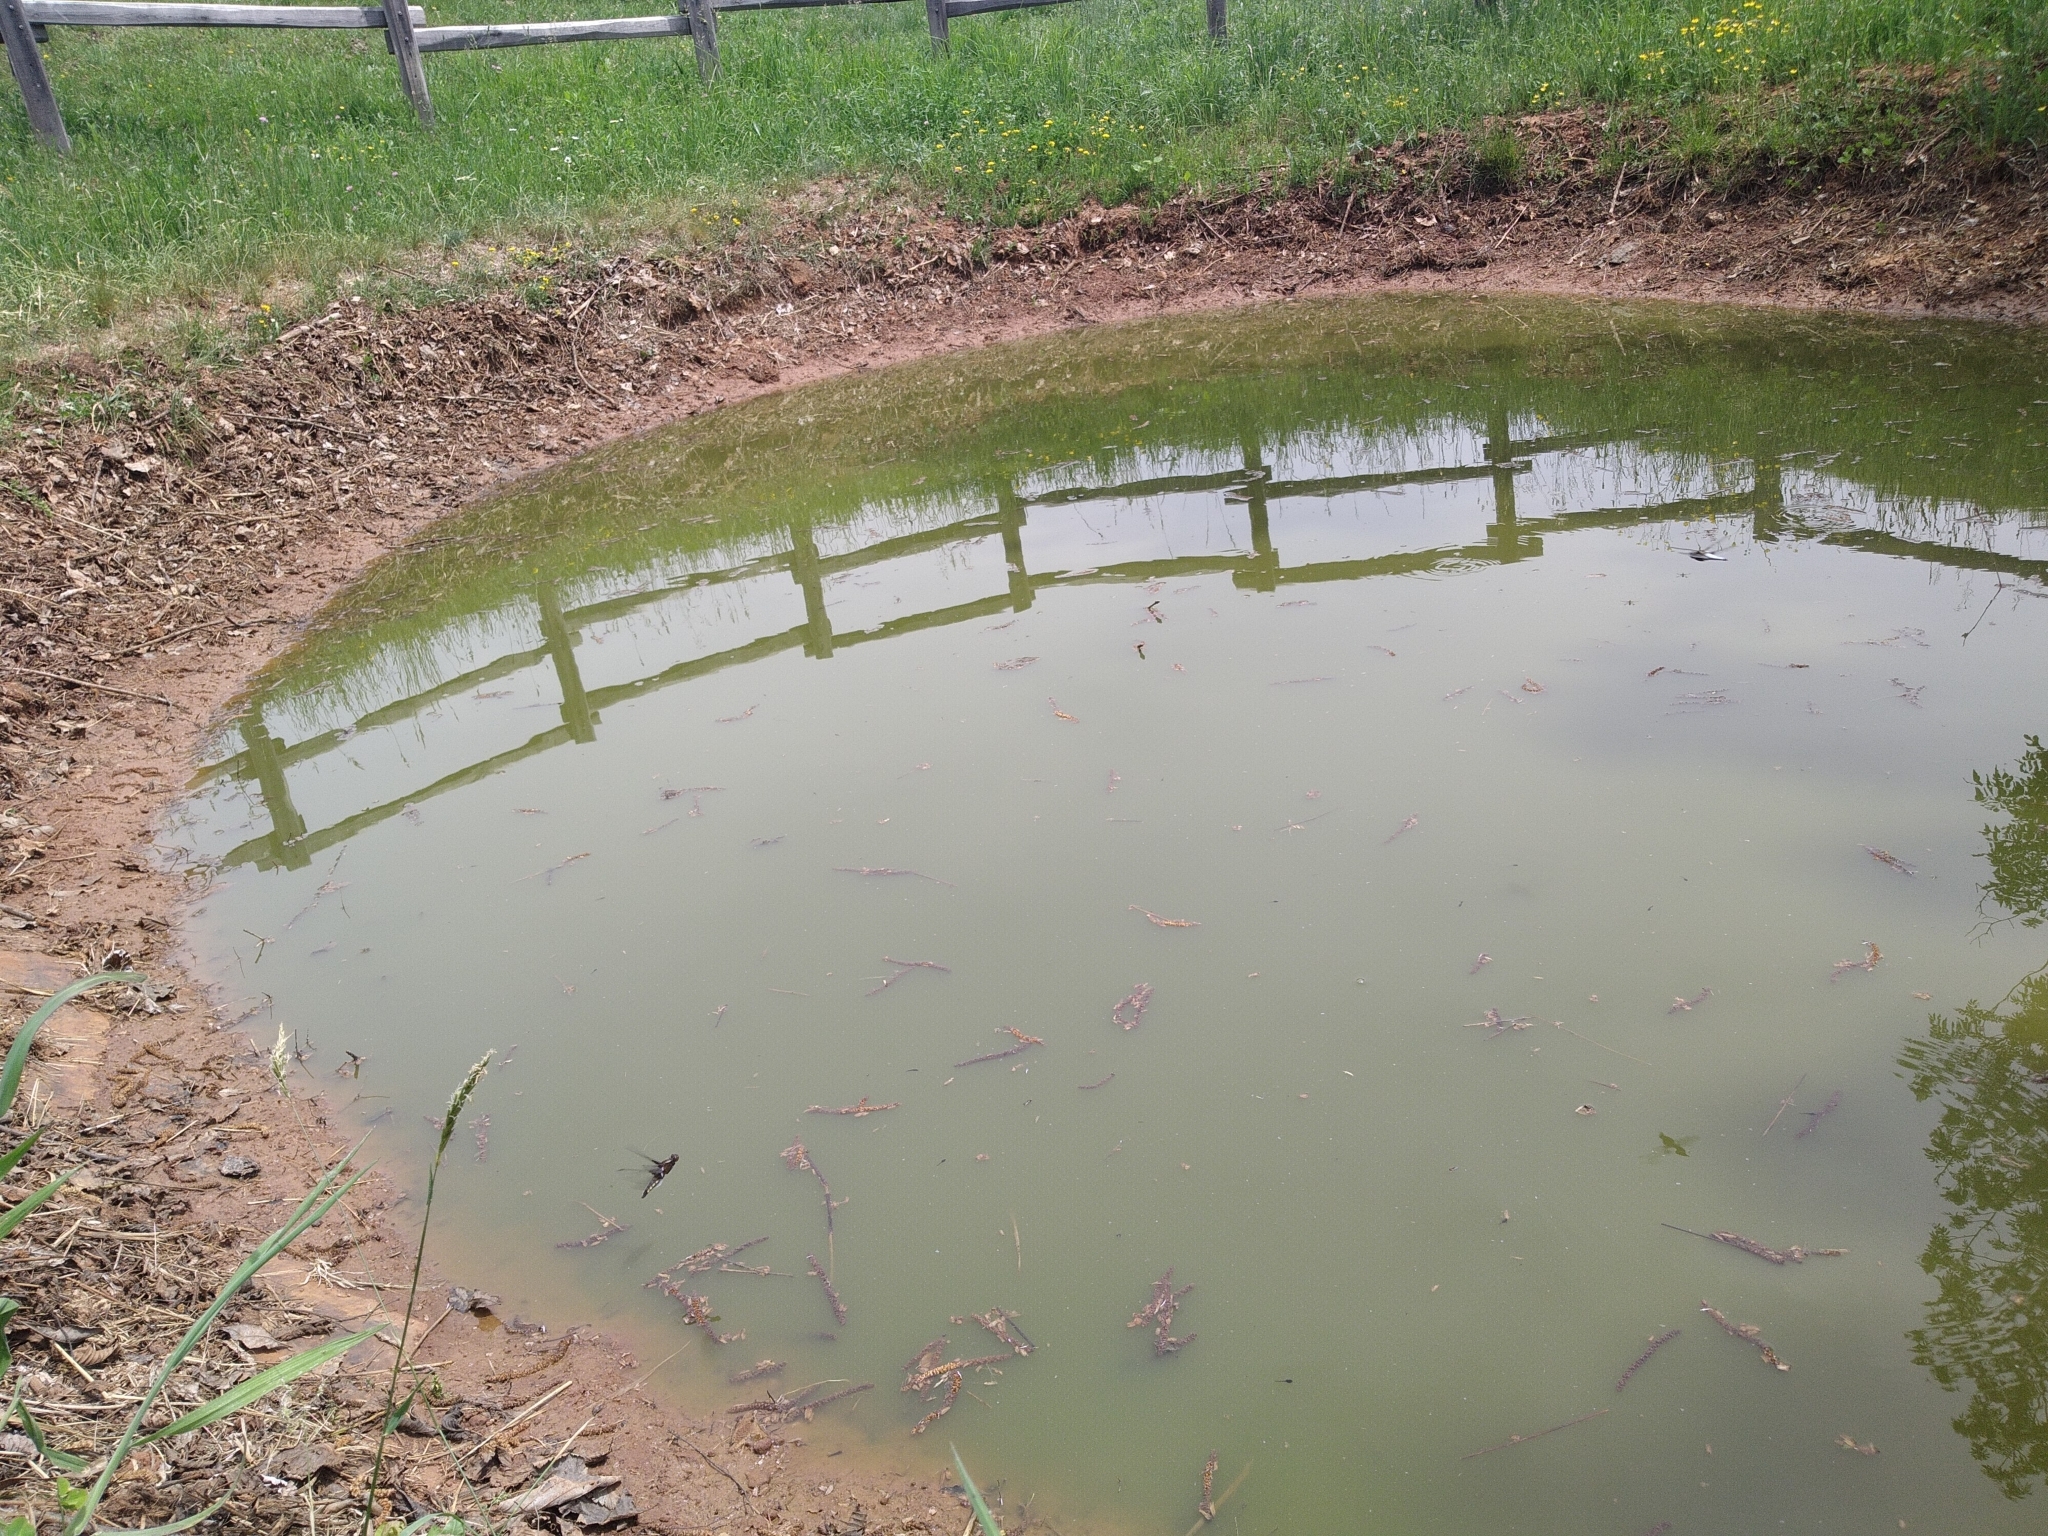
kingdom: Animalia
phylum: Arthropoda
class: Insecta
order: Odonata
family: Libellulidae
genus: Libellula
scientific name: Libellula depressa
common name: Broad-bodied chaser
